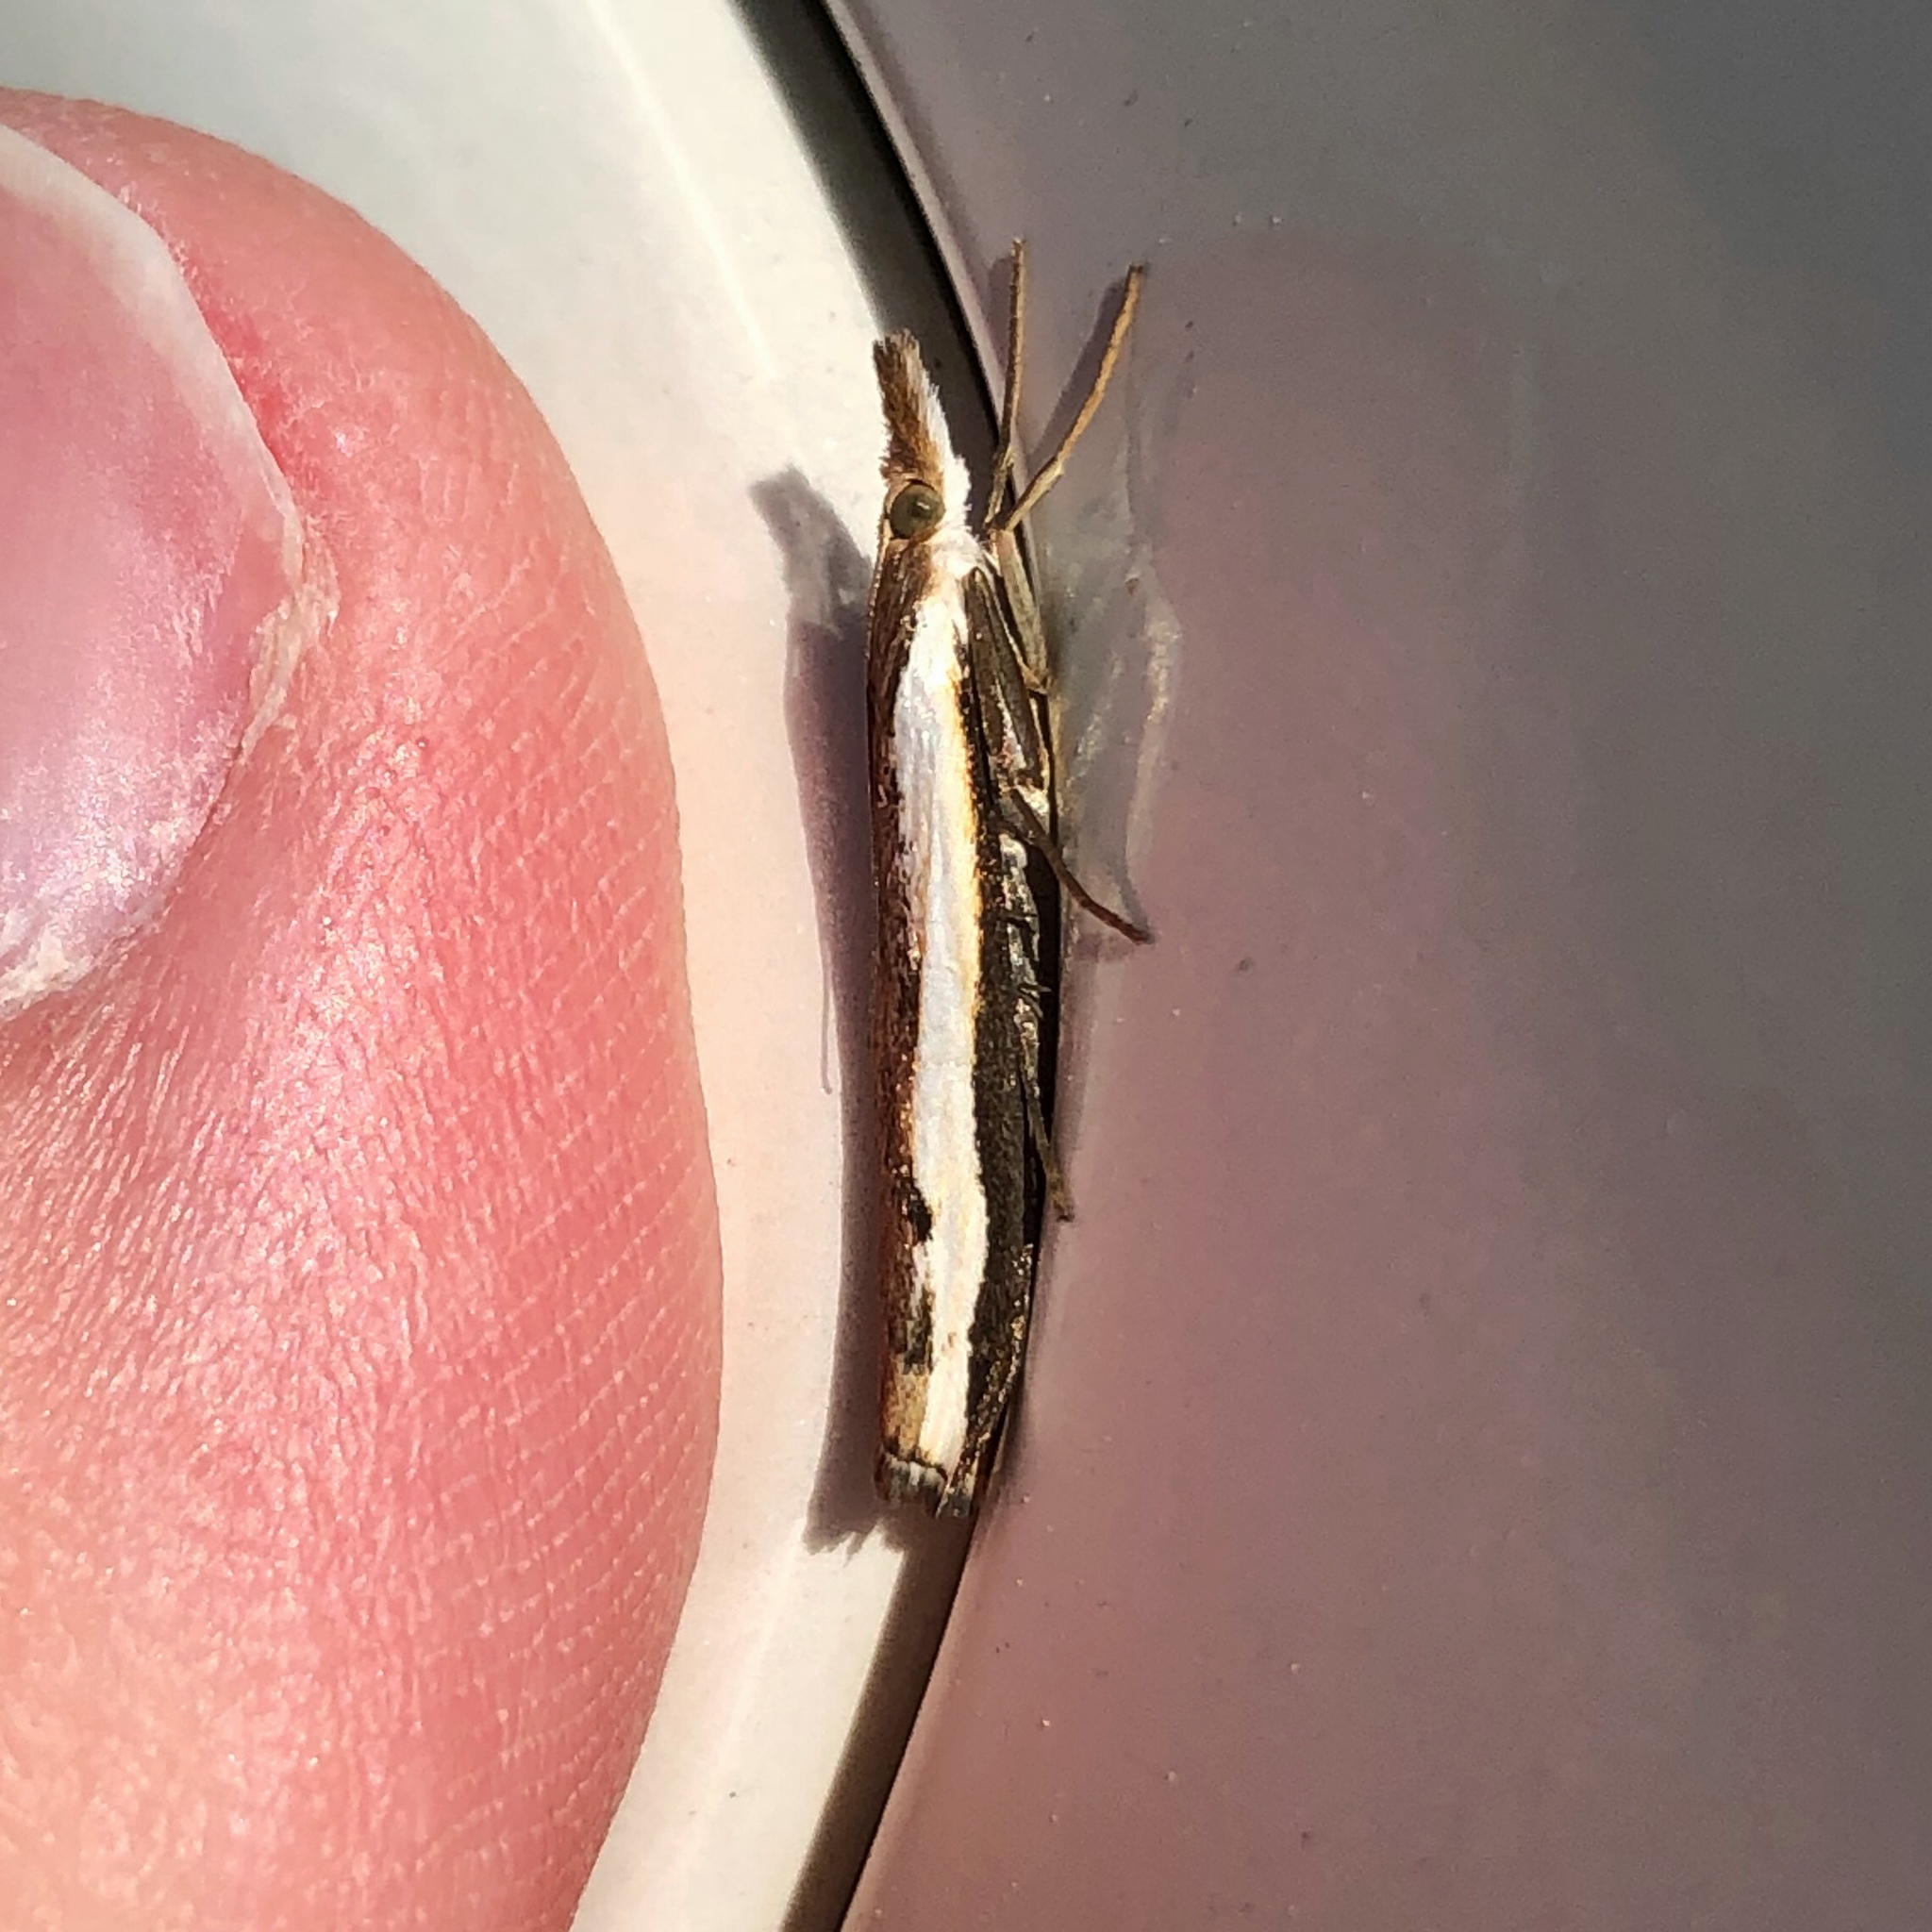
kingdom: Animalia
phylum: Arthropoda
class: Insecta
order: Lepidoptera
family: Crambidae
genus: Orocrambus
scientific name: Orocrambus flexuosellus
